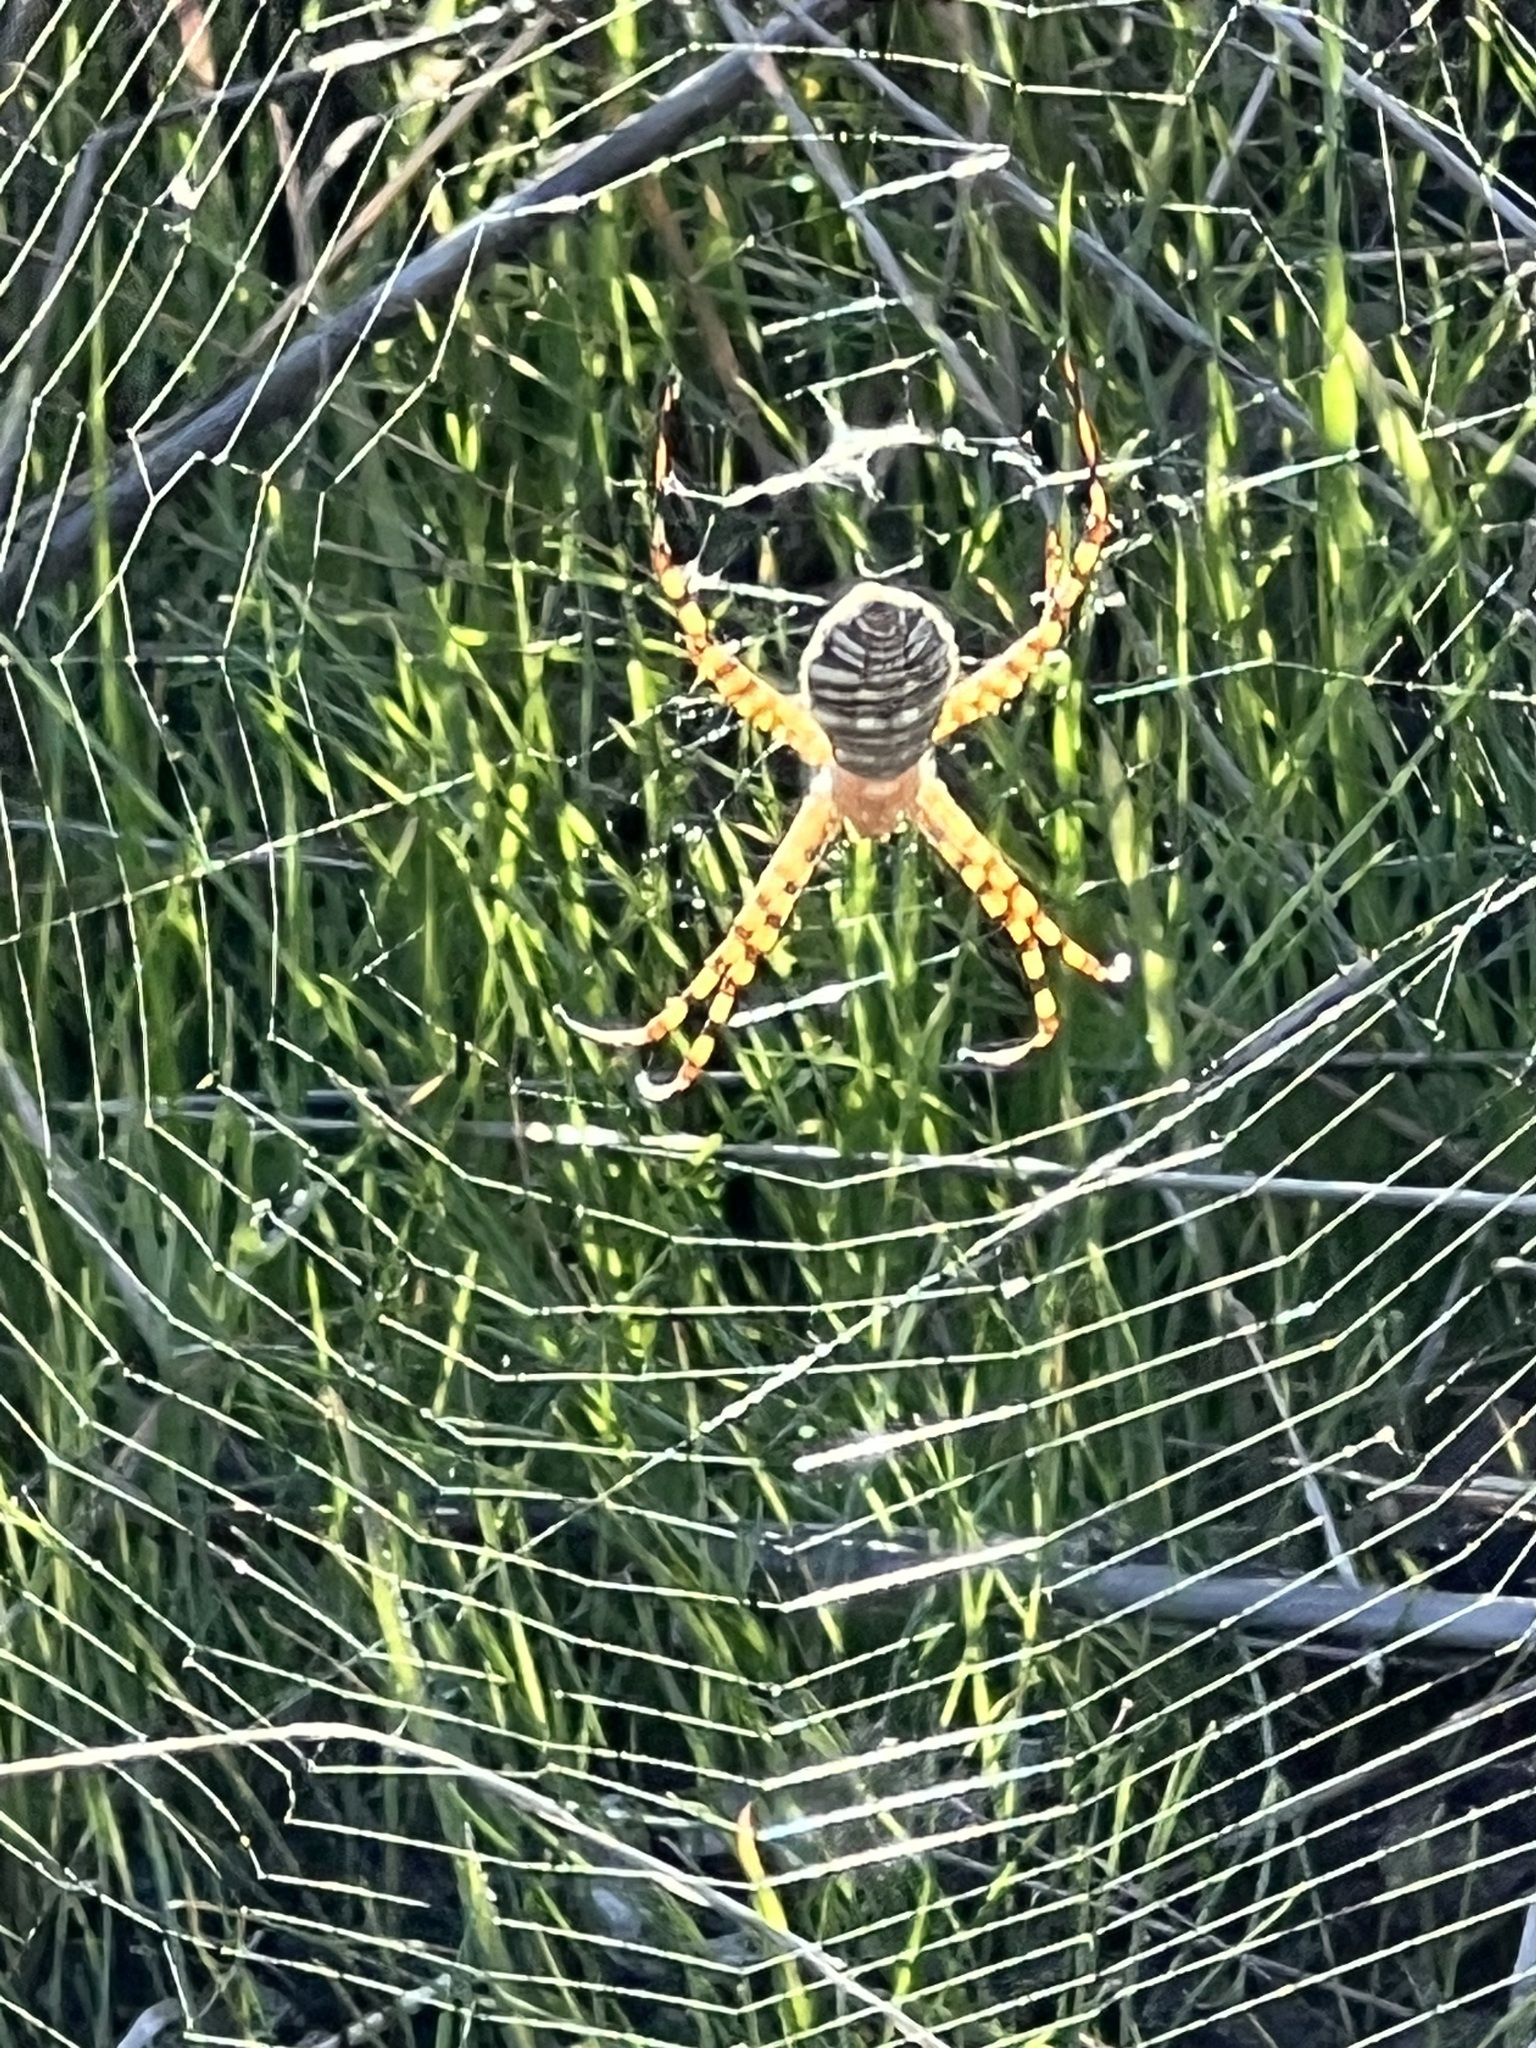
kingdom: Animalia
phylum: Arthropoda
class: Arachnida
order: Araneae
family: Araneidae
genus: Argiope
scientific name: Argiope trifasciata
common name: Banded garden spider
